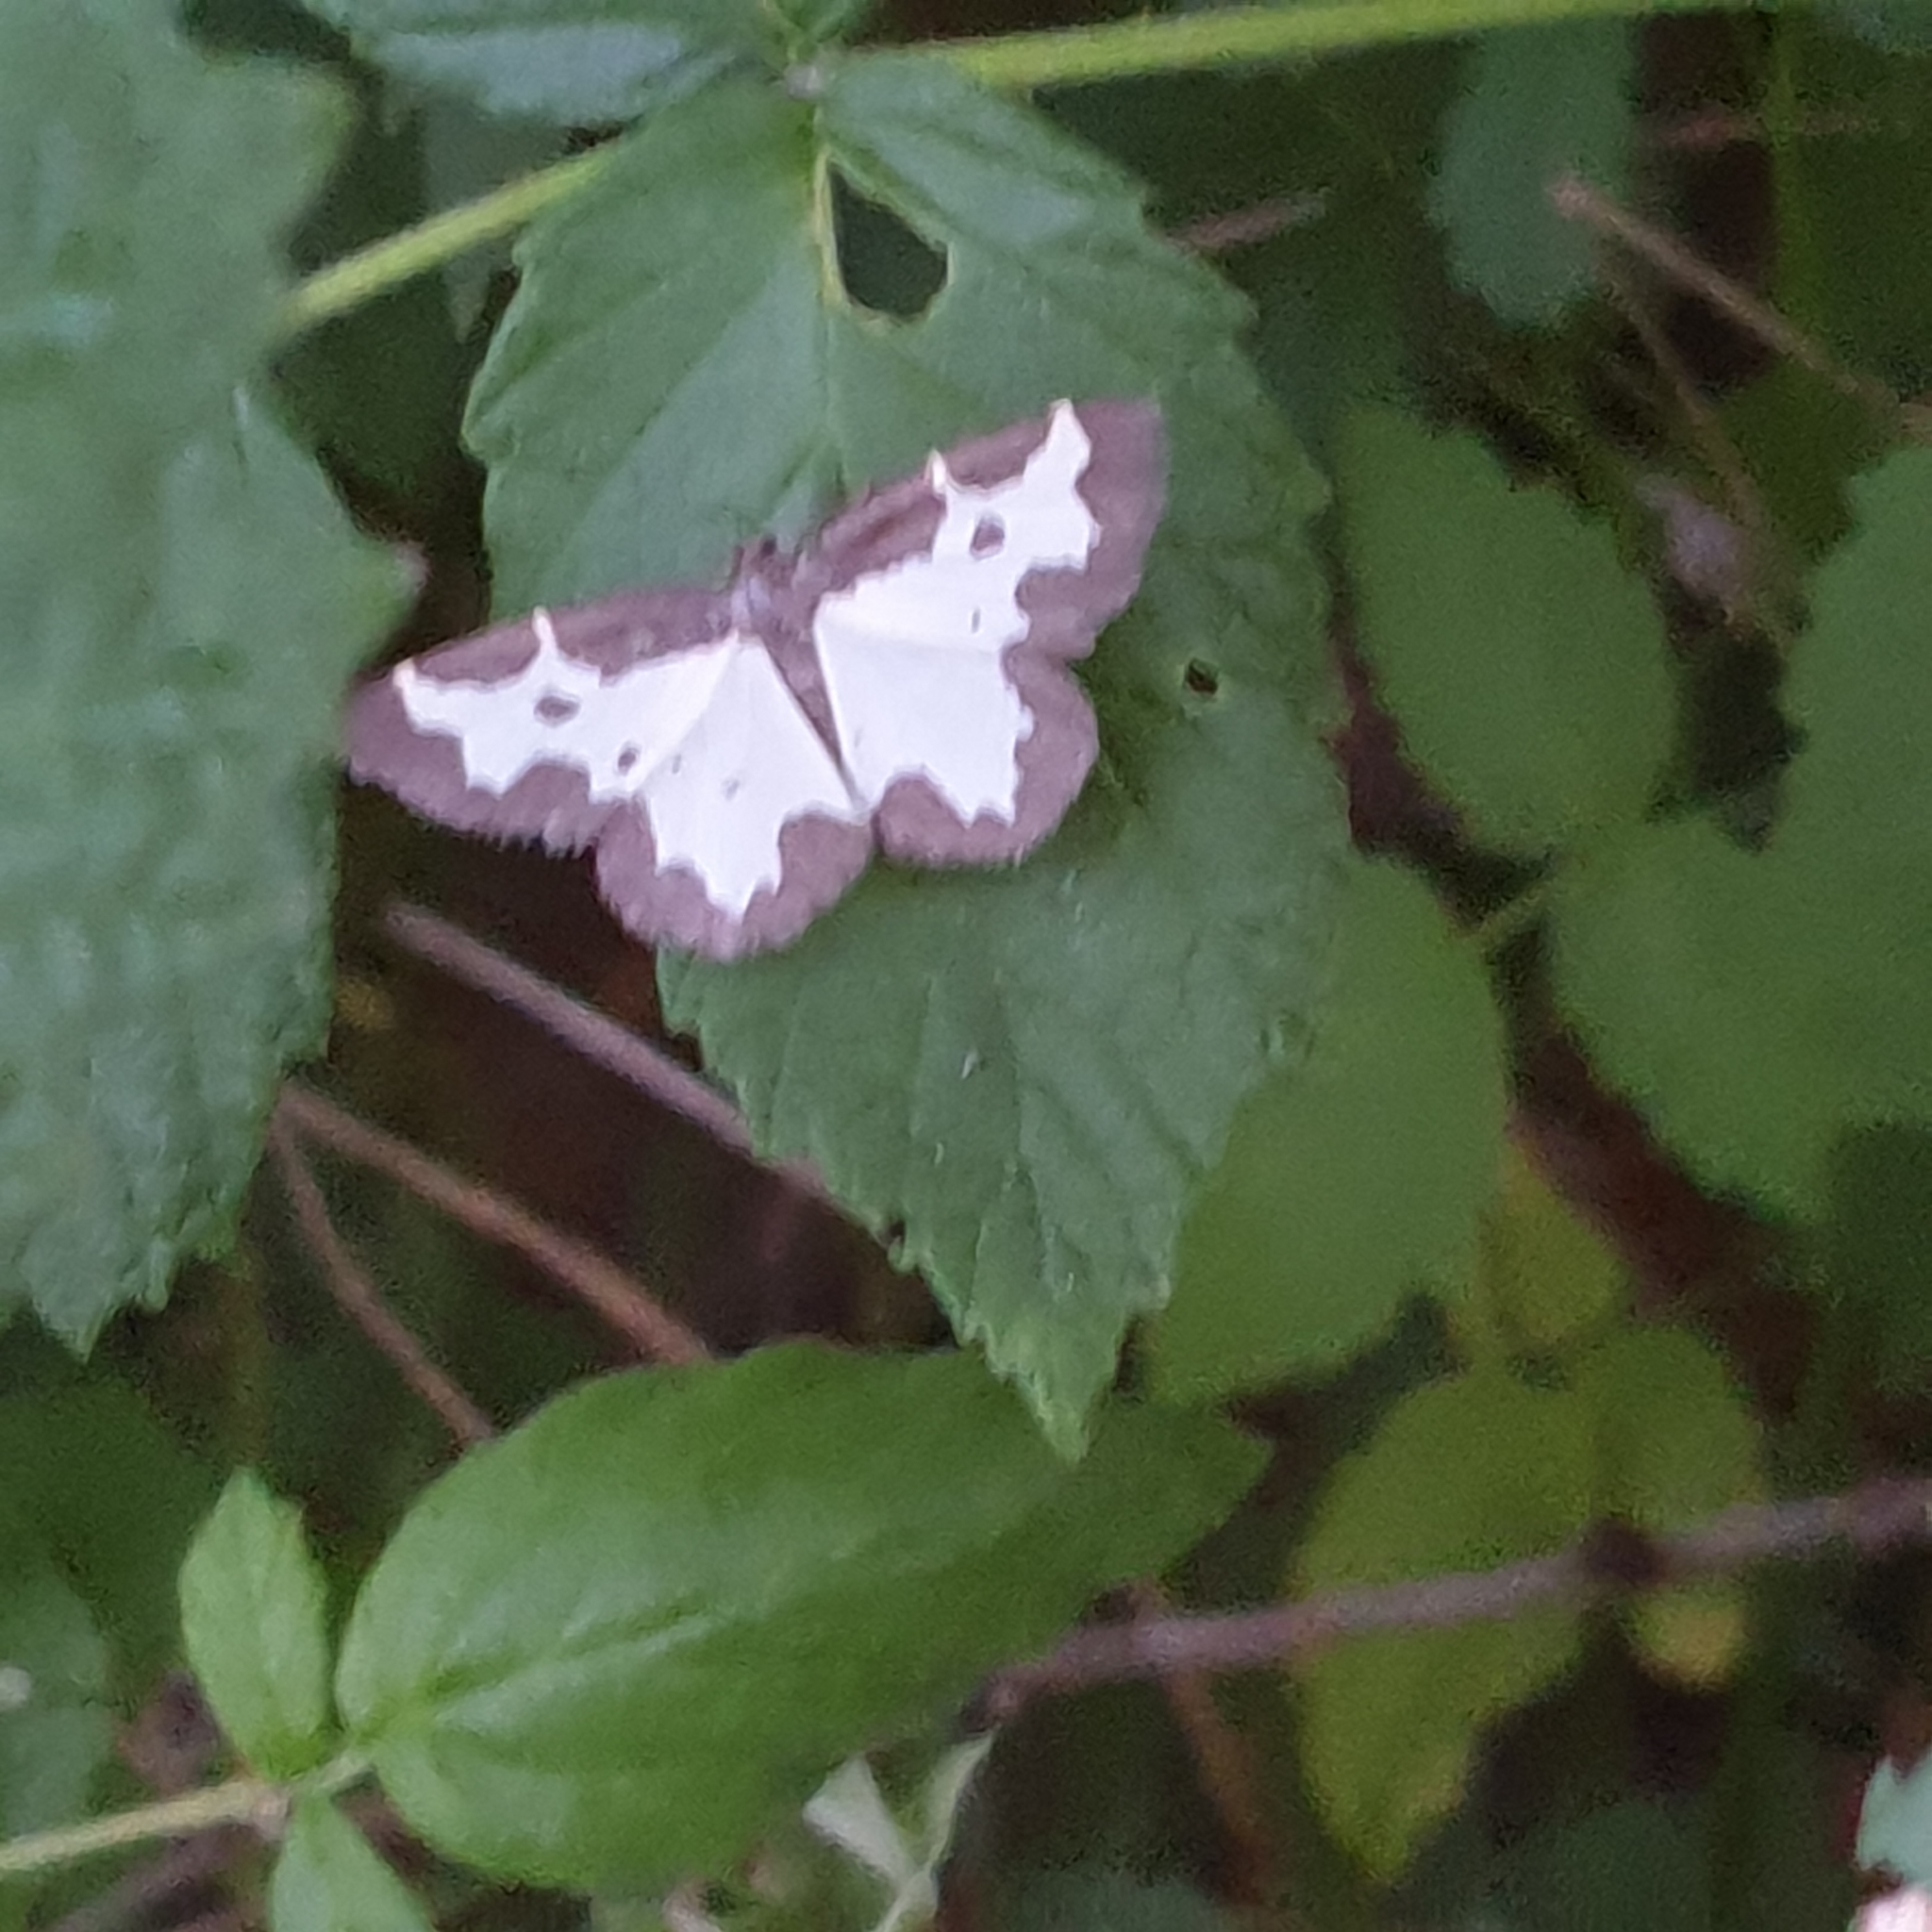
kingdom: Animalia
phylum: Arthropoda
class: Insecta
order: Lepidoptera
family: Geometridae
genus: Lomaspilis
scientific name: Lomaspilis marginata
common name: Clouded border
